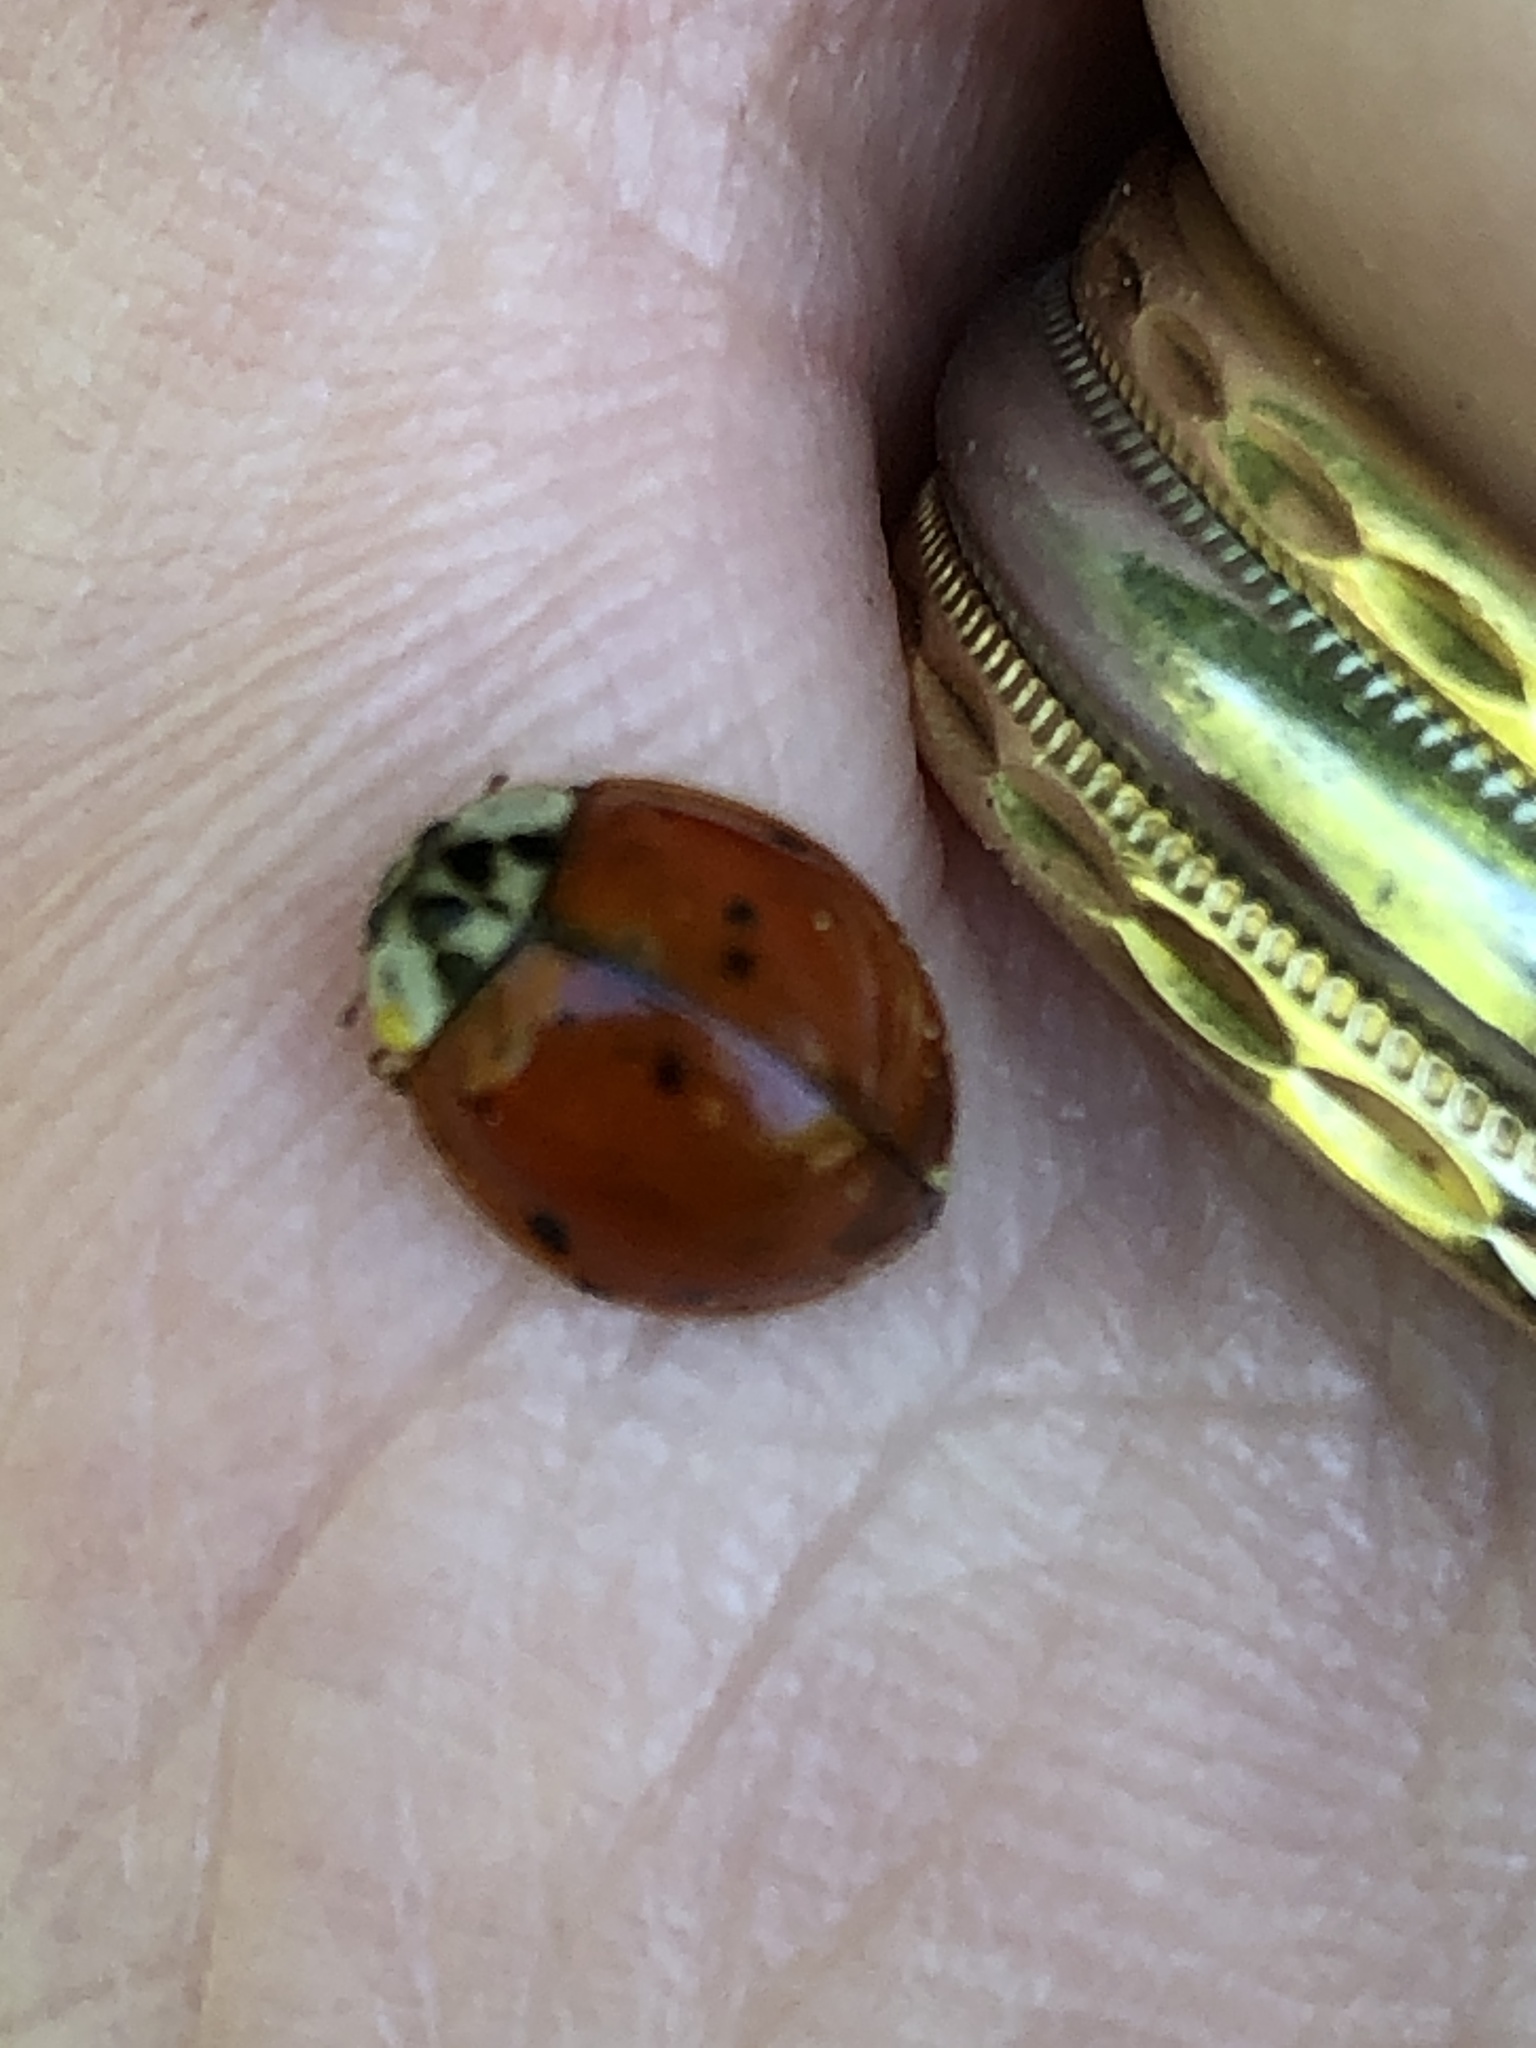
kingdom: Animalia
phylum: Arthropoda
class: Insecta
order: Coleoptera
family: Coccinellidae
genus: Harmonia
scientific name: Harmonia axyridis
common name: Harlequin ladybird
